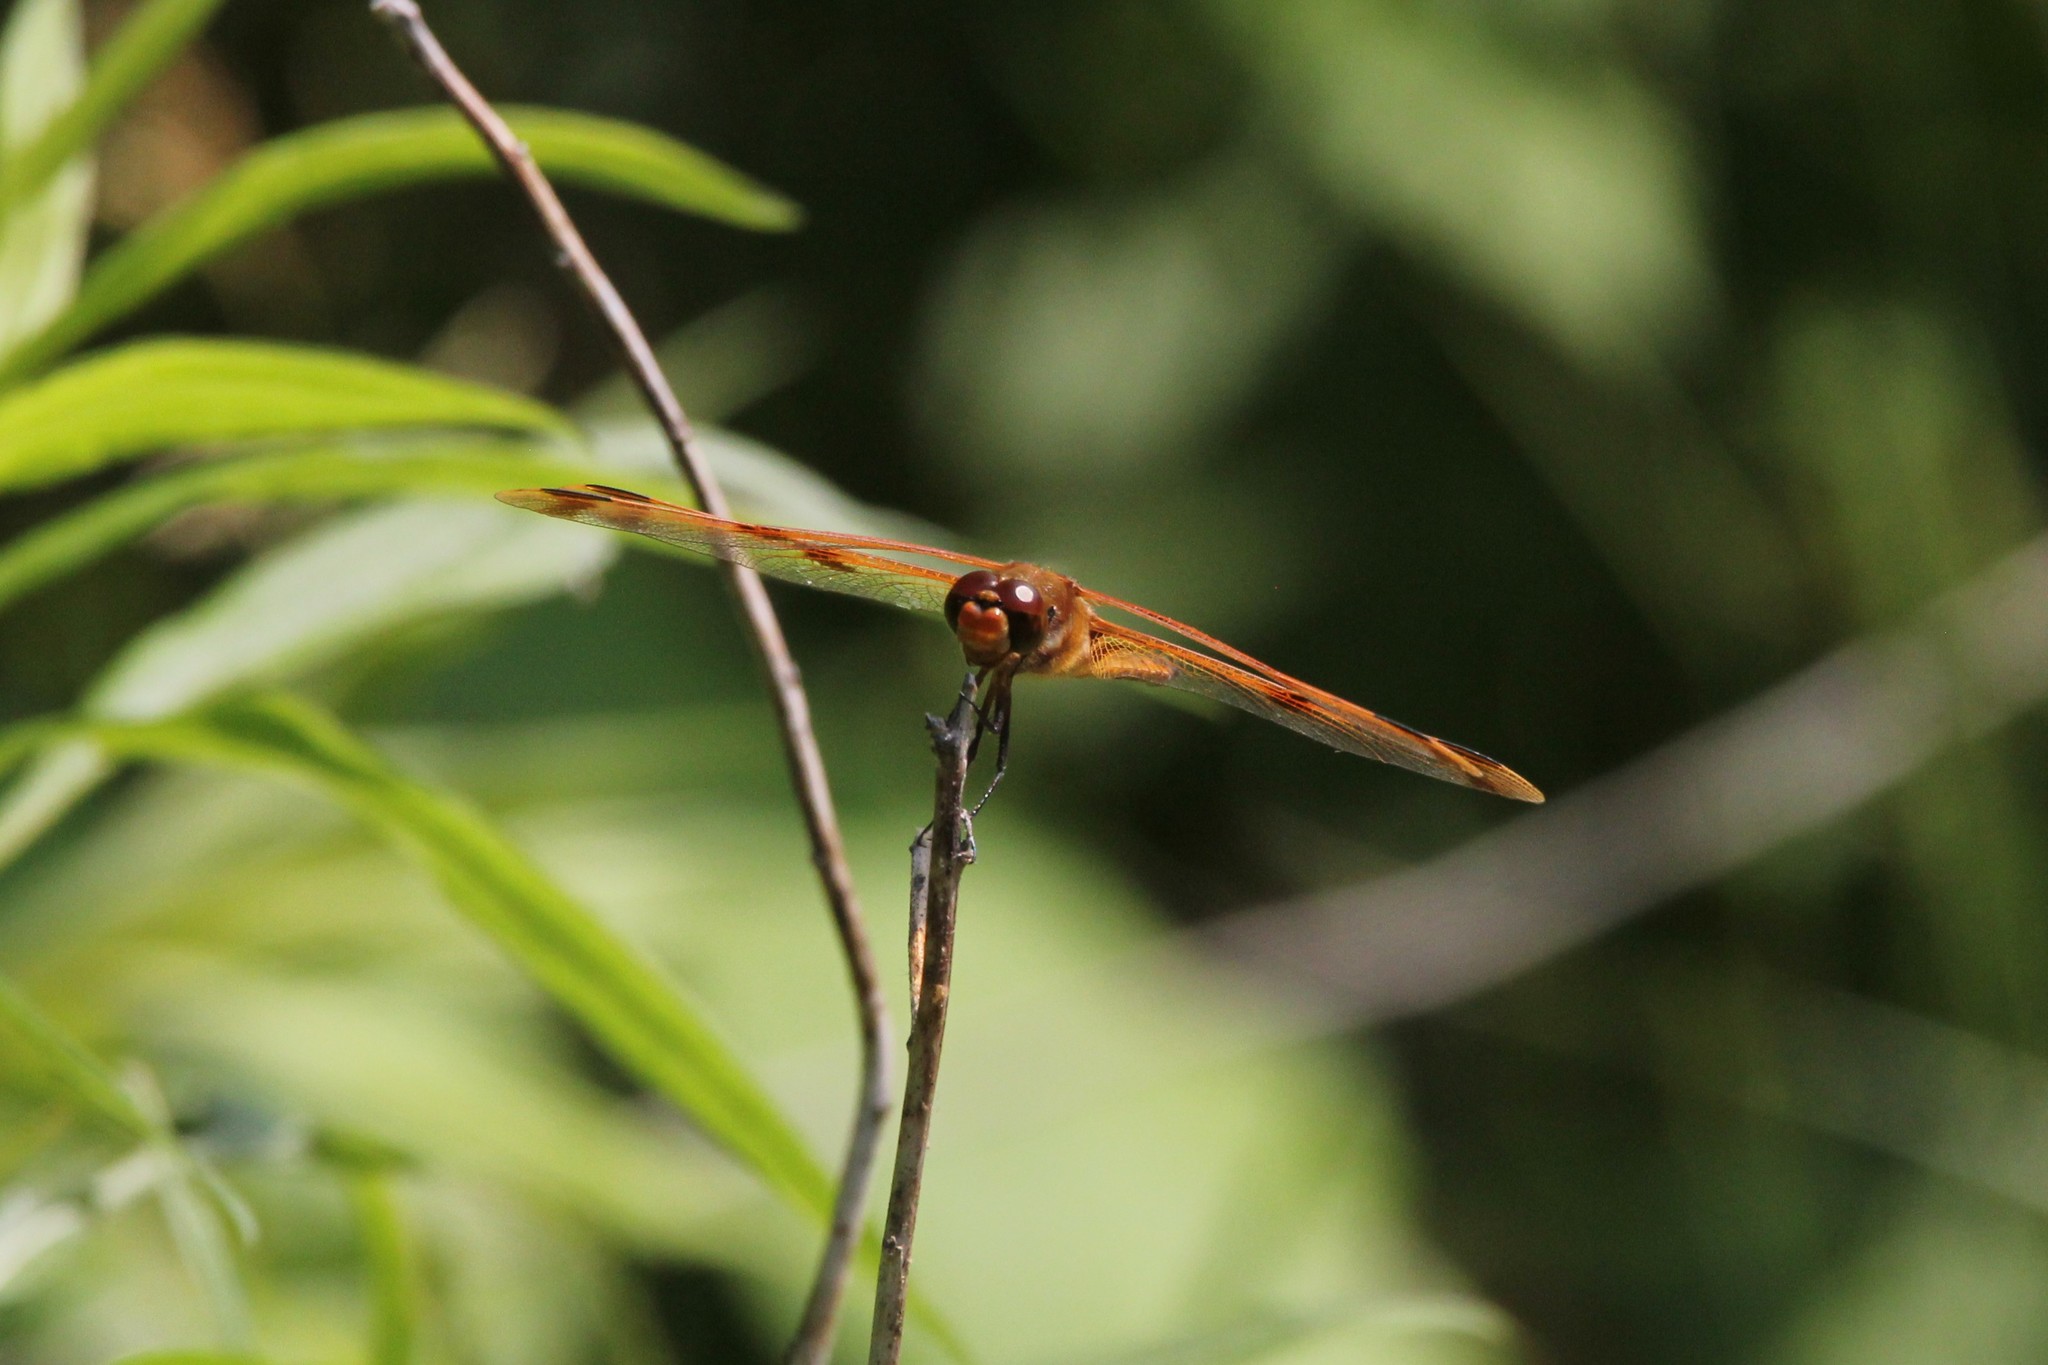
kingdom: Animalia
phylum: Arthropoda
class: Insecta
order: Odonata
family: Libellulidae
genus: Libellula
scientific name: Libellula semifasciata
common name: Painted skimmer
